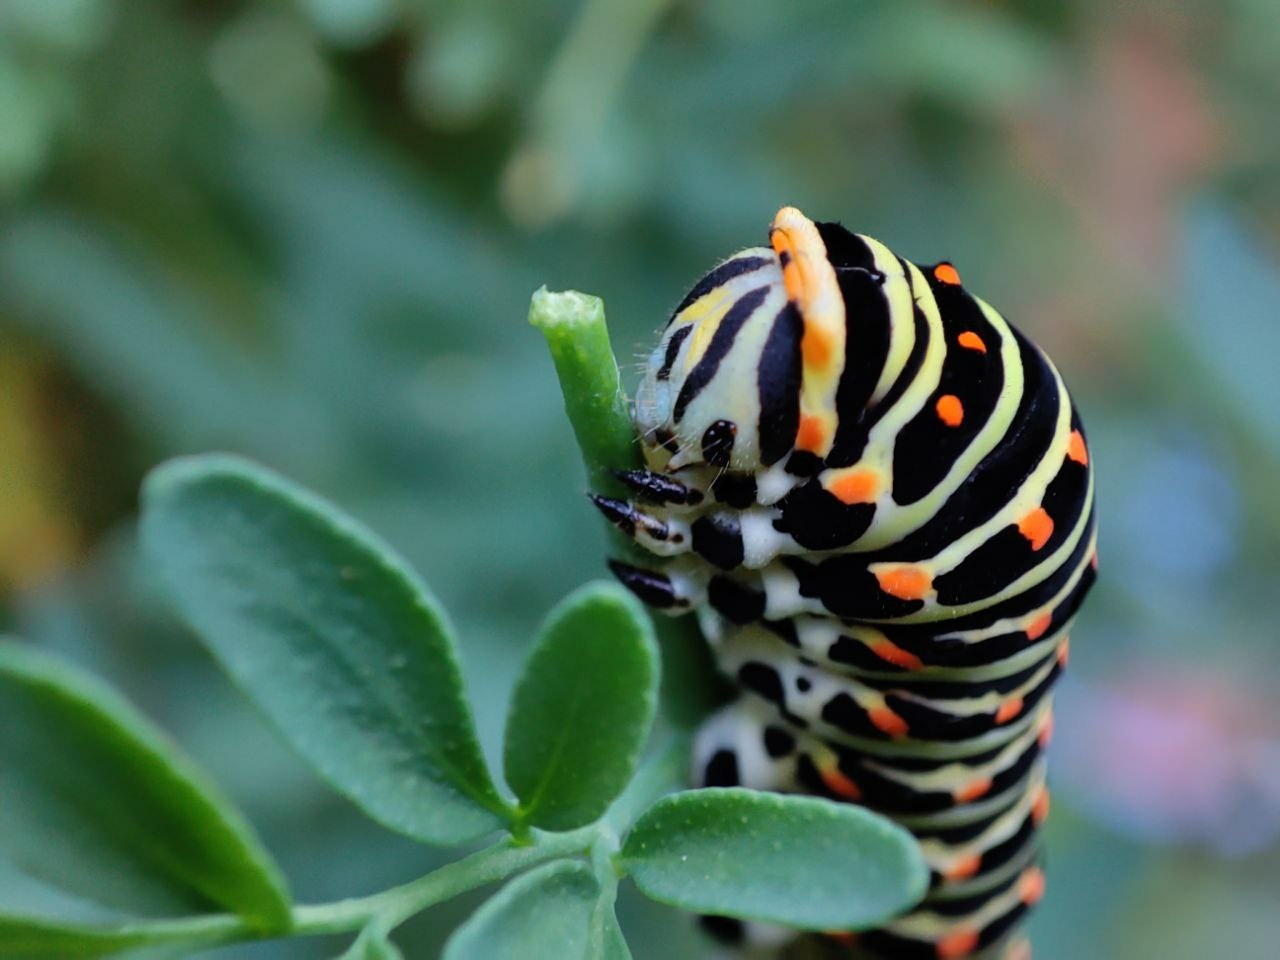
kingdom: Animalia
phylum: Arthropoda
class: Insecta
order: Lepidoptera
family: Papilionidae
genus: Papilio
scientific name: Papilio machaon
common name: Swallowtail
